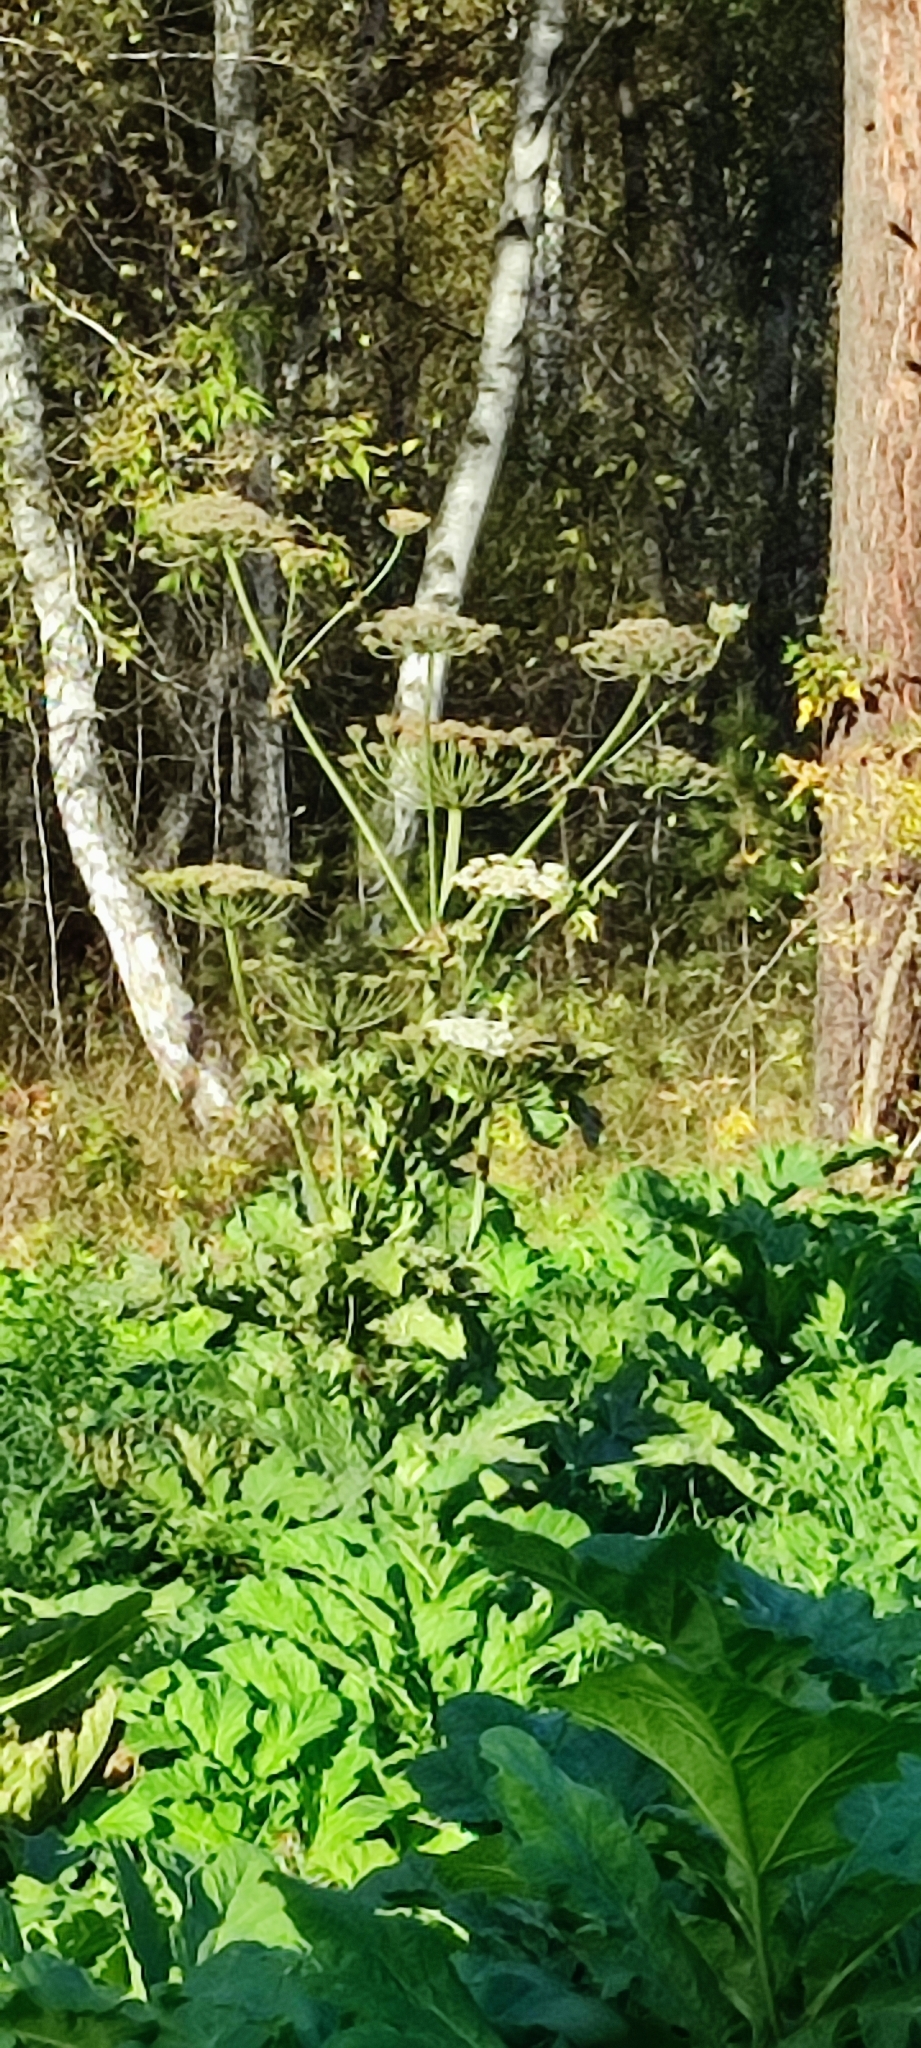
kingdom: Plantae
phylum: Tracheophyta
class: Magnoliopsida
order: Apiales
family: Apiaceae
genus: Heracleum
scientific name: Heracleum sosnowskyi
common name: Sosnowsky's hogweed
